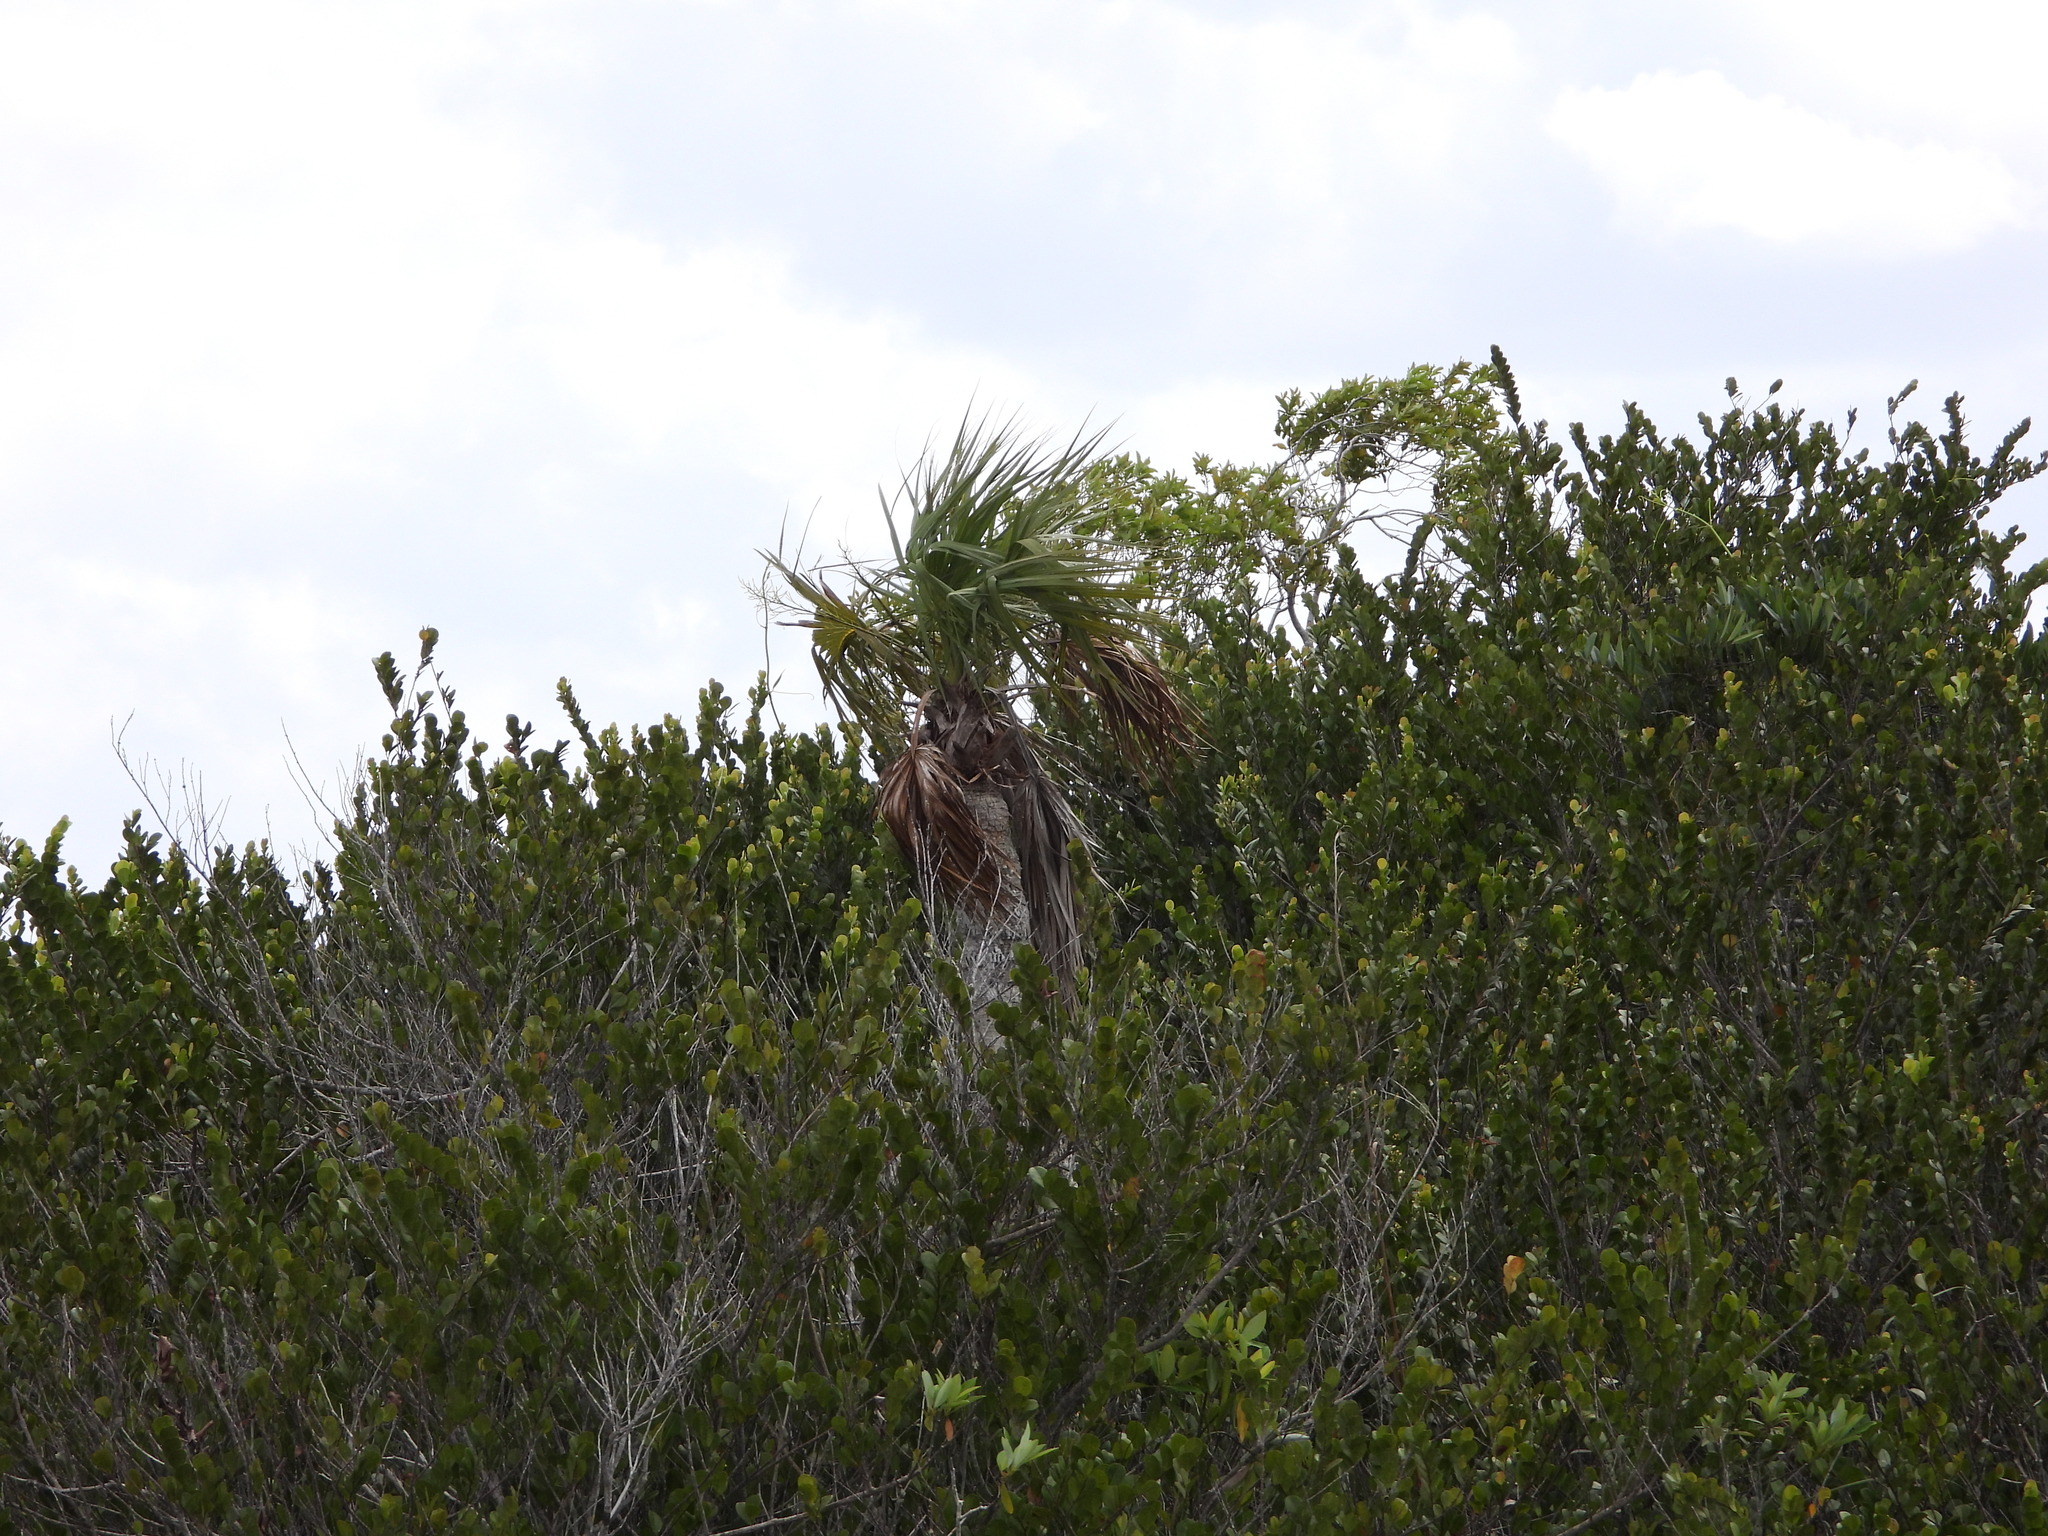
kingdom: Plantae
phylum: Tracheophyta
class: Liliopsida
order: Arecales
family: Arecaceae
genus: Sabal
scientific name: Sabal palmetto
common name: Blue palmetto
